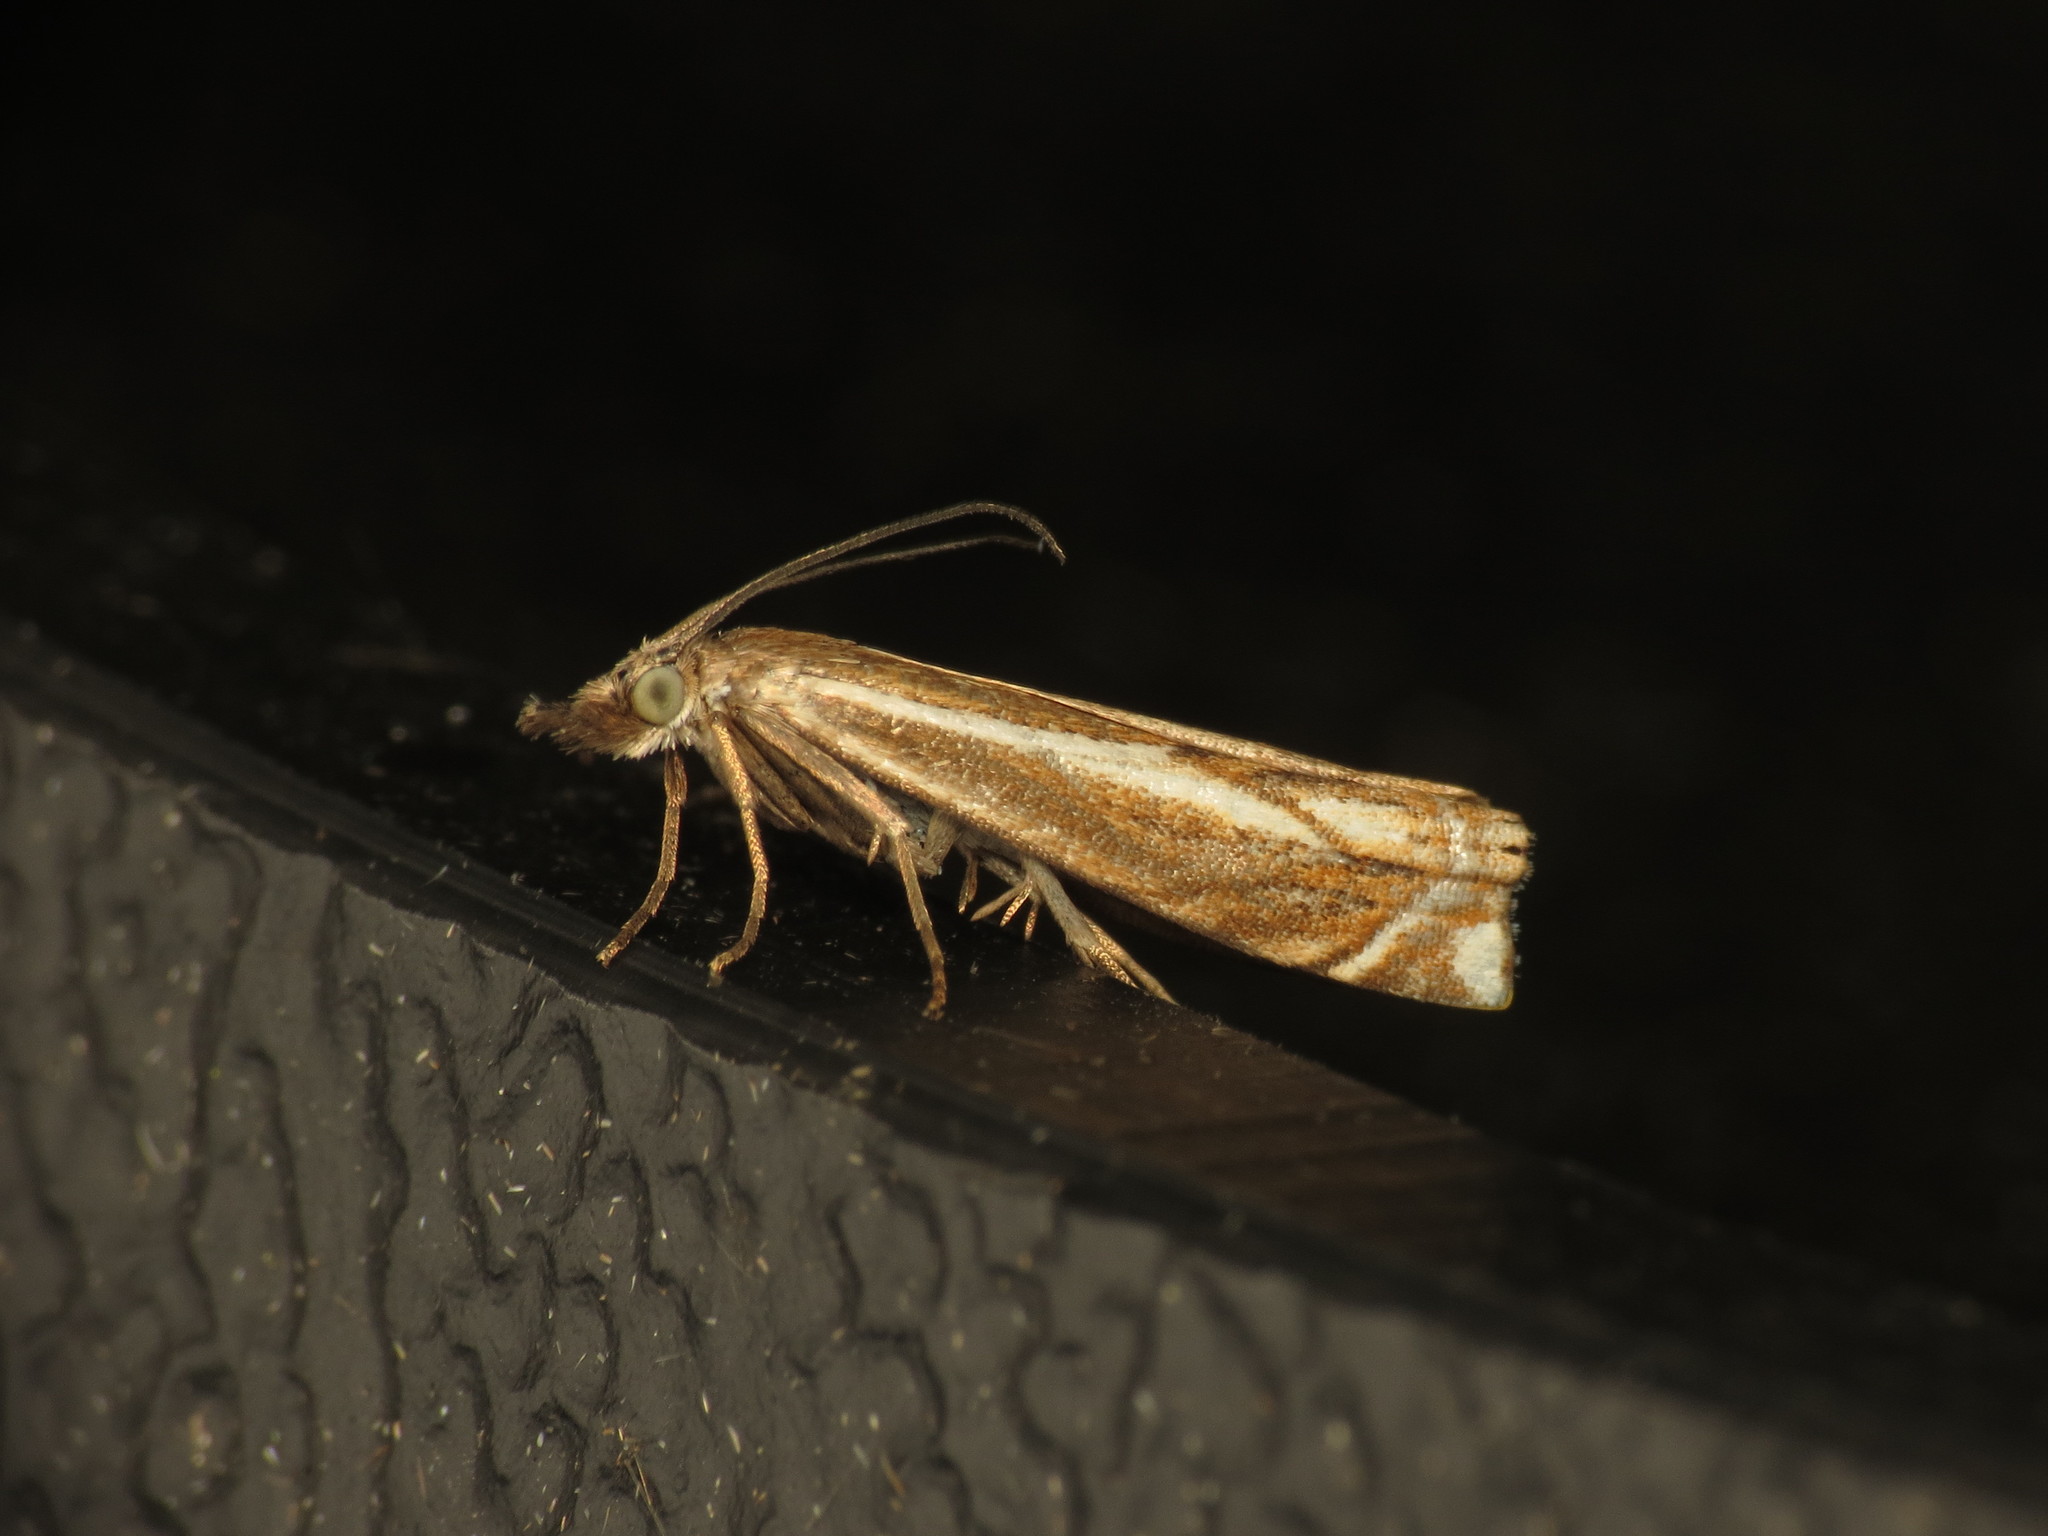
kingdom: Animalia
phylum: Arthropoda
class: Insecta
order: Lepidoptera
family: Crambidae
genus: Crambus
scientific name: Crambus nemorella
